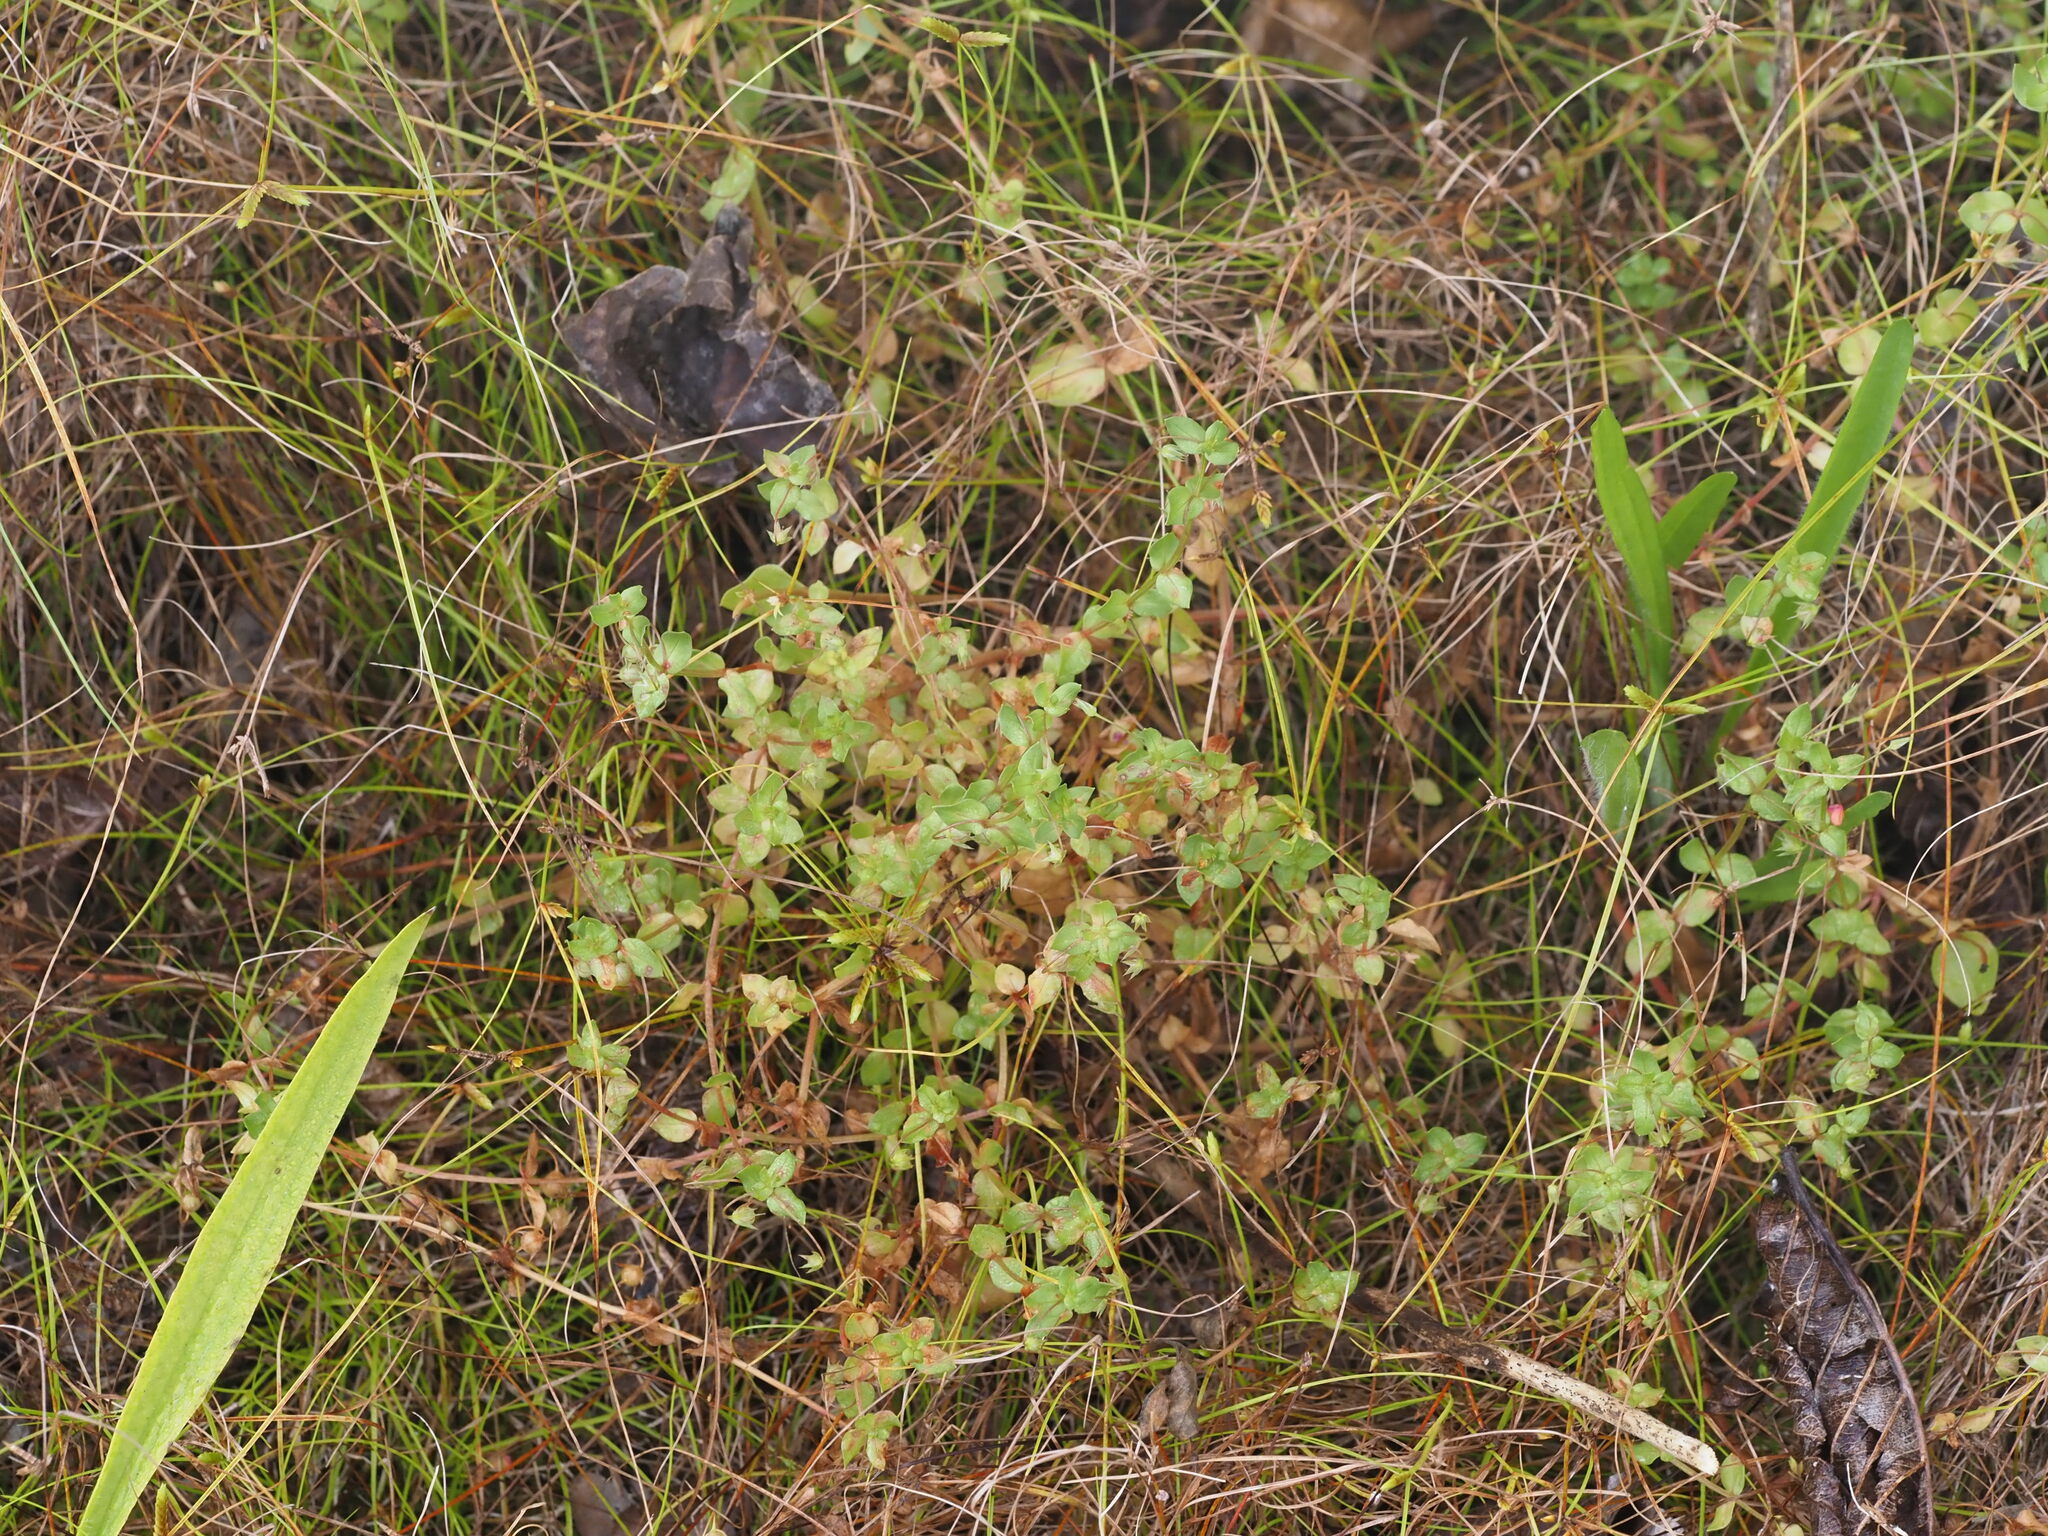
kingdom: Plantae
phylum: Tracheophyta
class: Magnoliopsida
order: Ericales
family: Primulaceae
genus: Lysimachia
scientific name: Lysimachia arvensis
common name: Scarlet pimpernel
